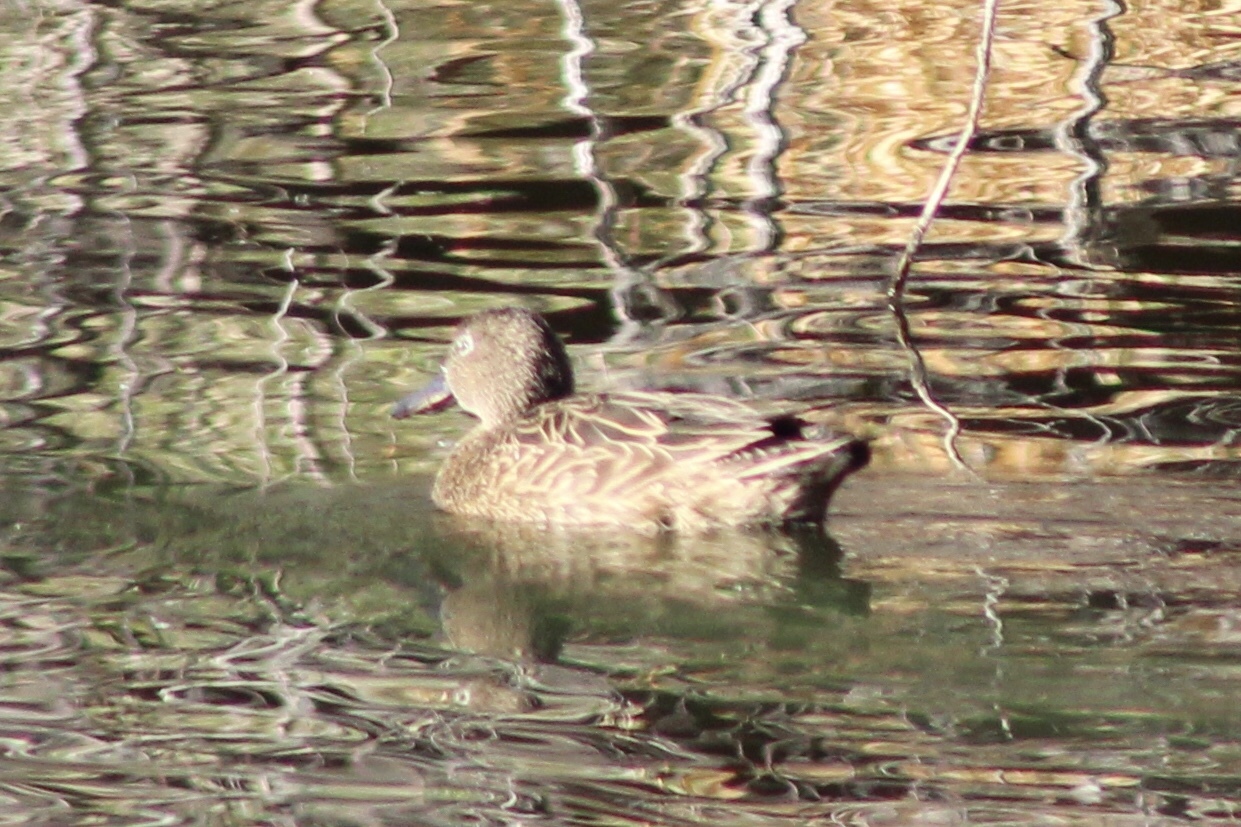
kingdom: Animalia
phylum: Chordata
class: Aves
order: Anseriformes
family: Anatidae
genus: Spatula
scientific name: Spatula cyanoptera
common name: Cinnamon teal
